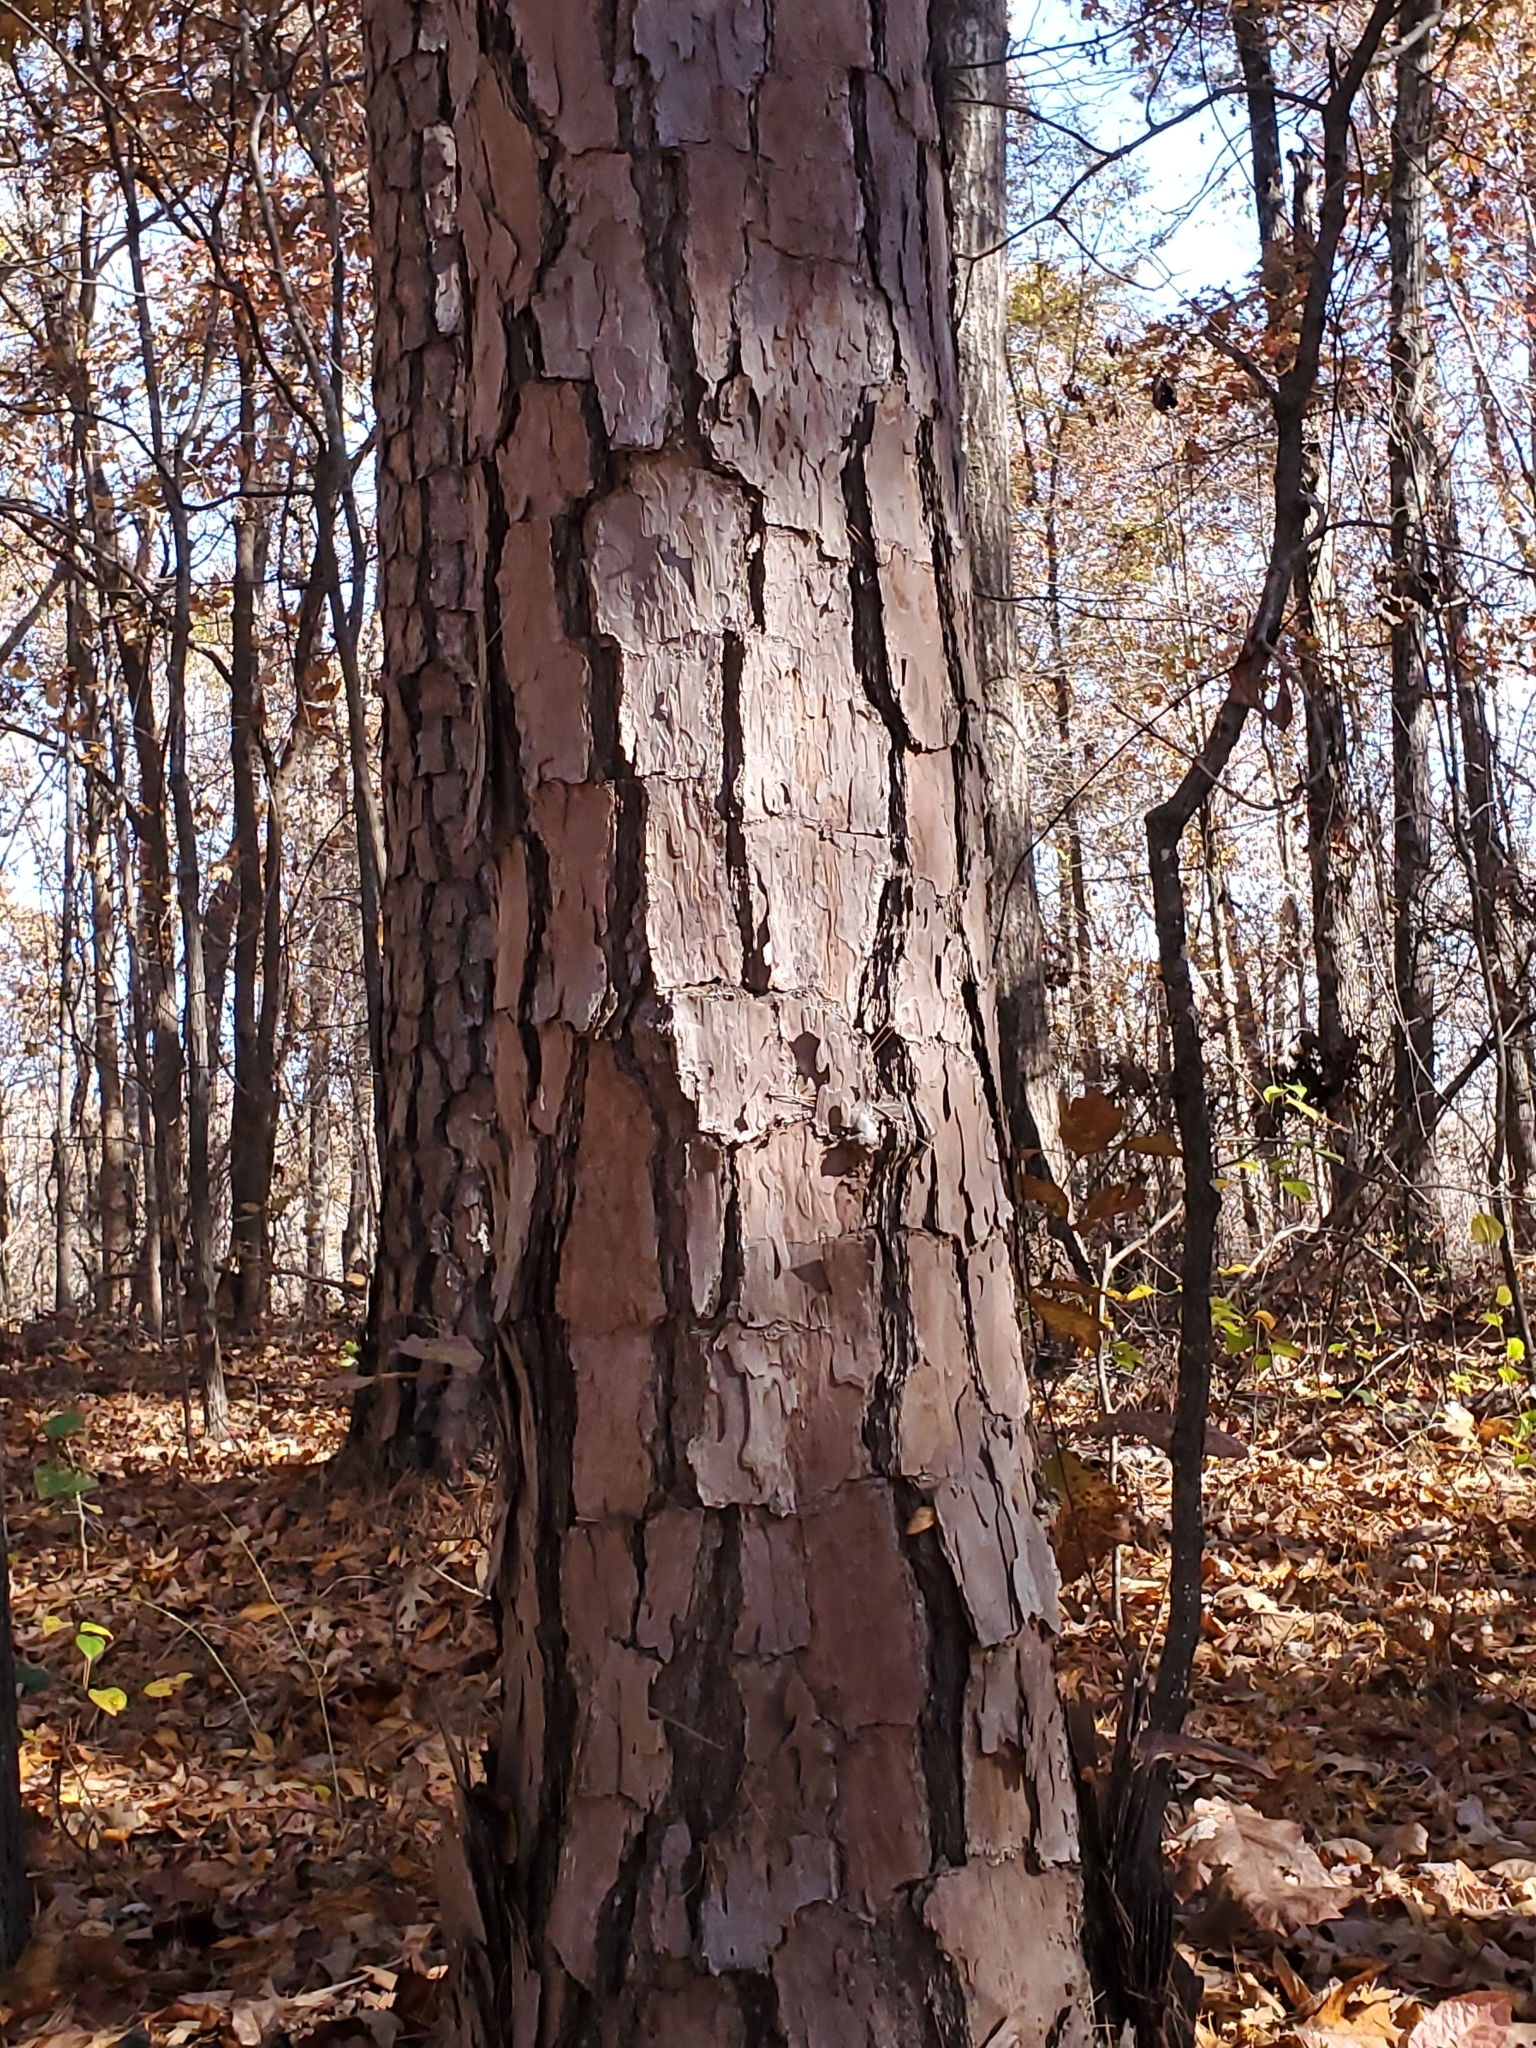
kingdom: Plantae
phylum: Tracheophyta
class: Pinopsida
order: Pinales
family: Pinaceae
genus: Pinus
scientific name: Pinus echinata
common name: Shortleaf pine
